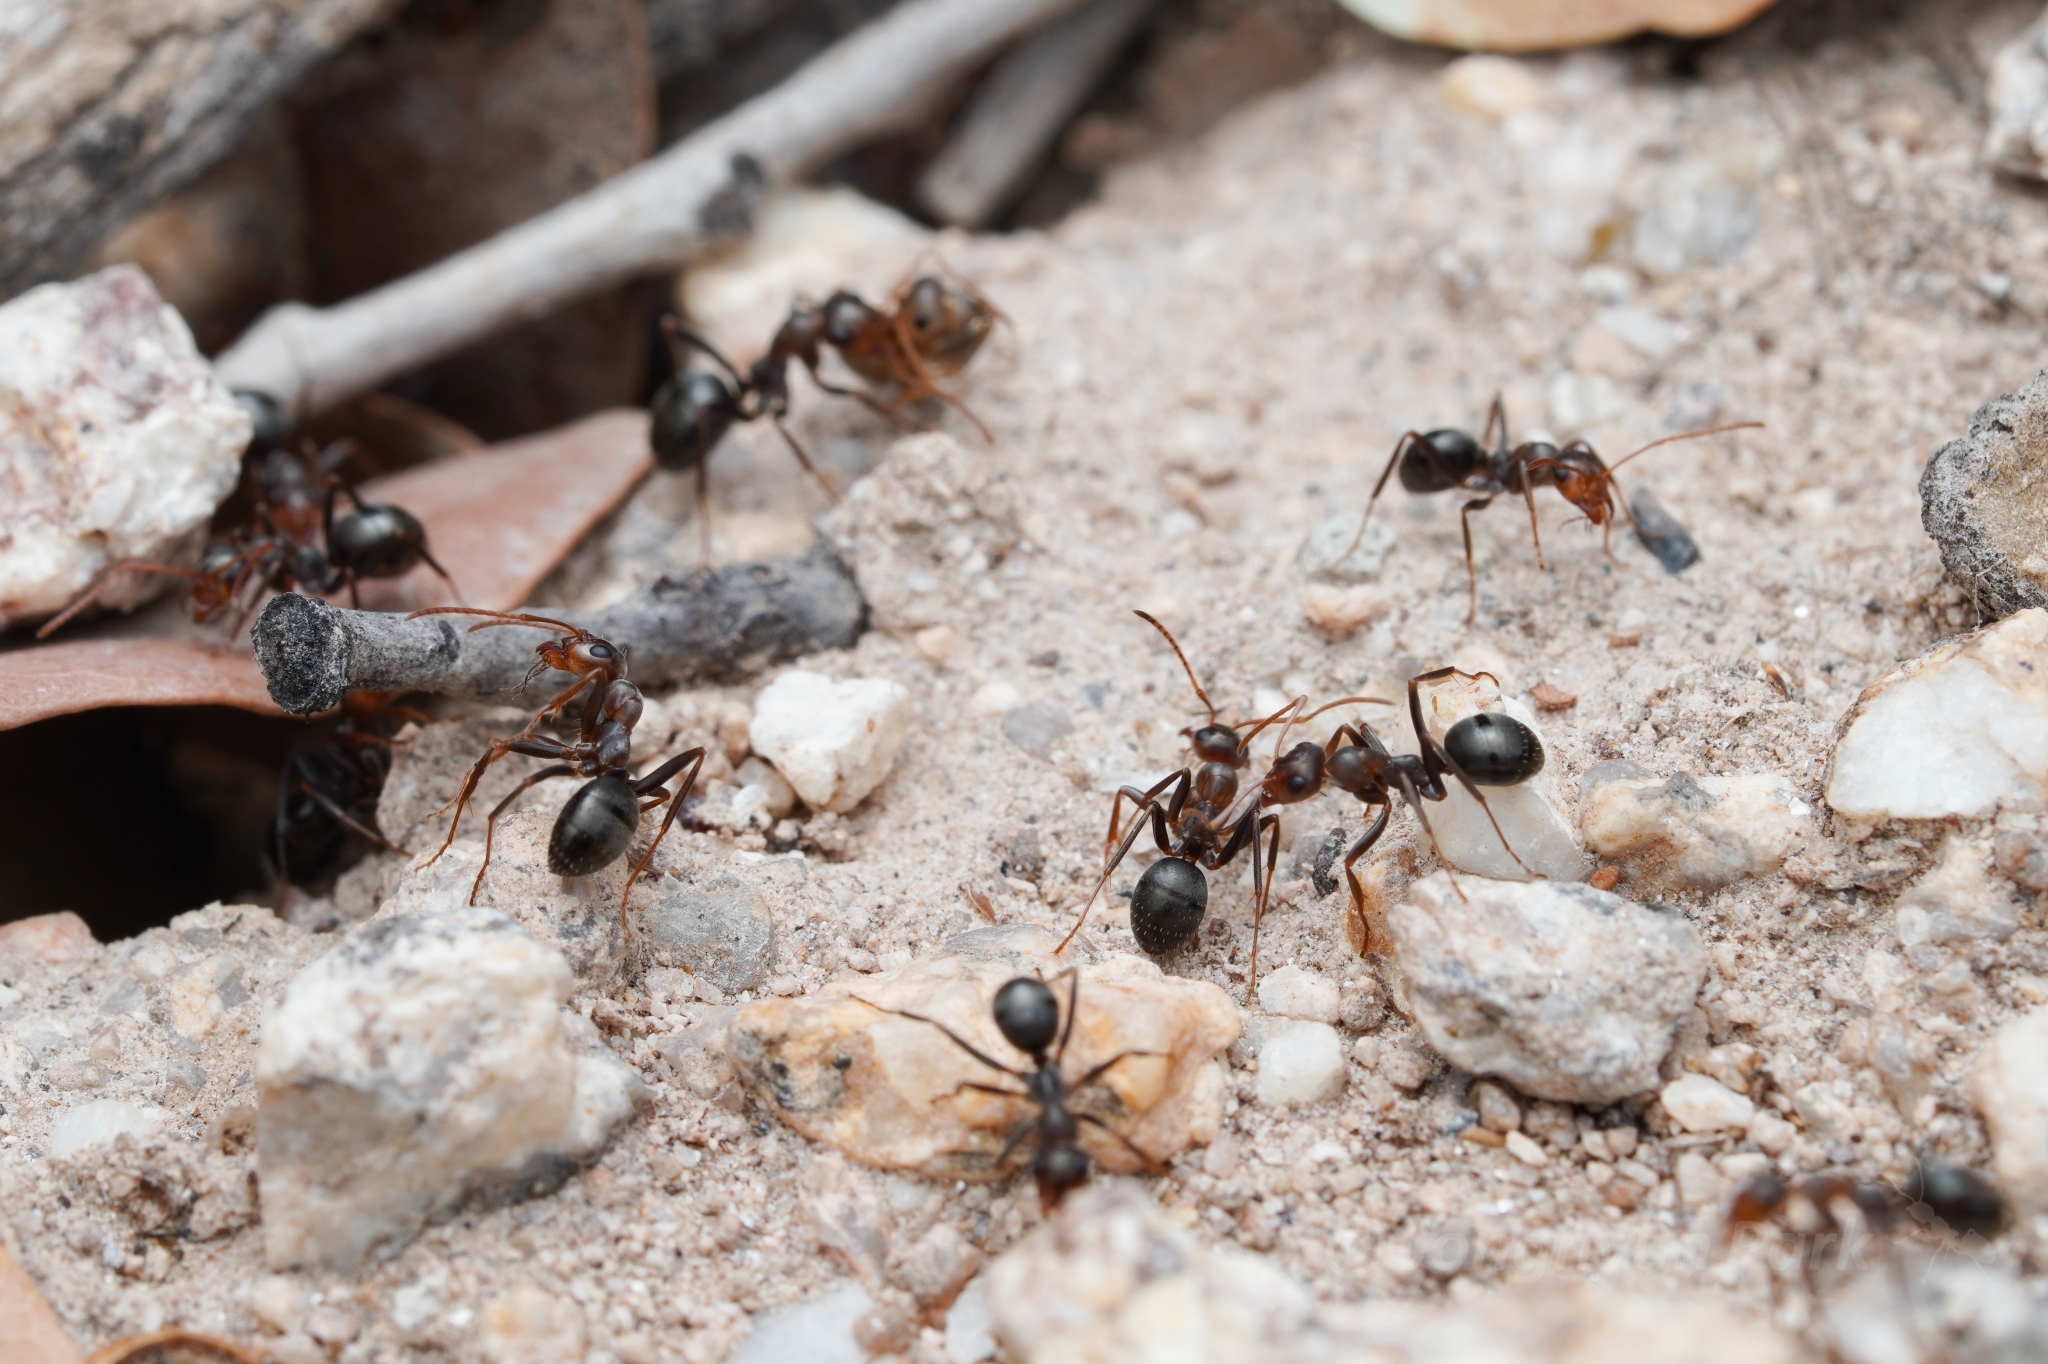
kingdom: Animalia
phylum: Arthropoda
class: Insecta
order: Hymenoptera
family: Formicidae
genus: Formica
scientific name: Formica gnava
